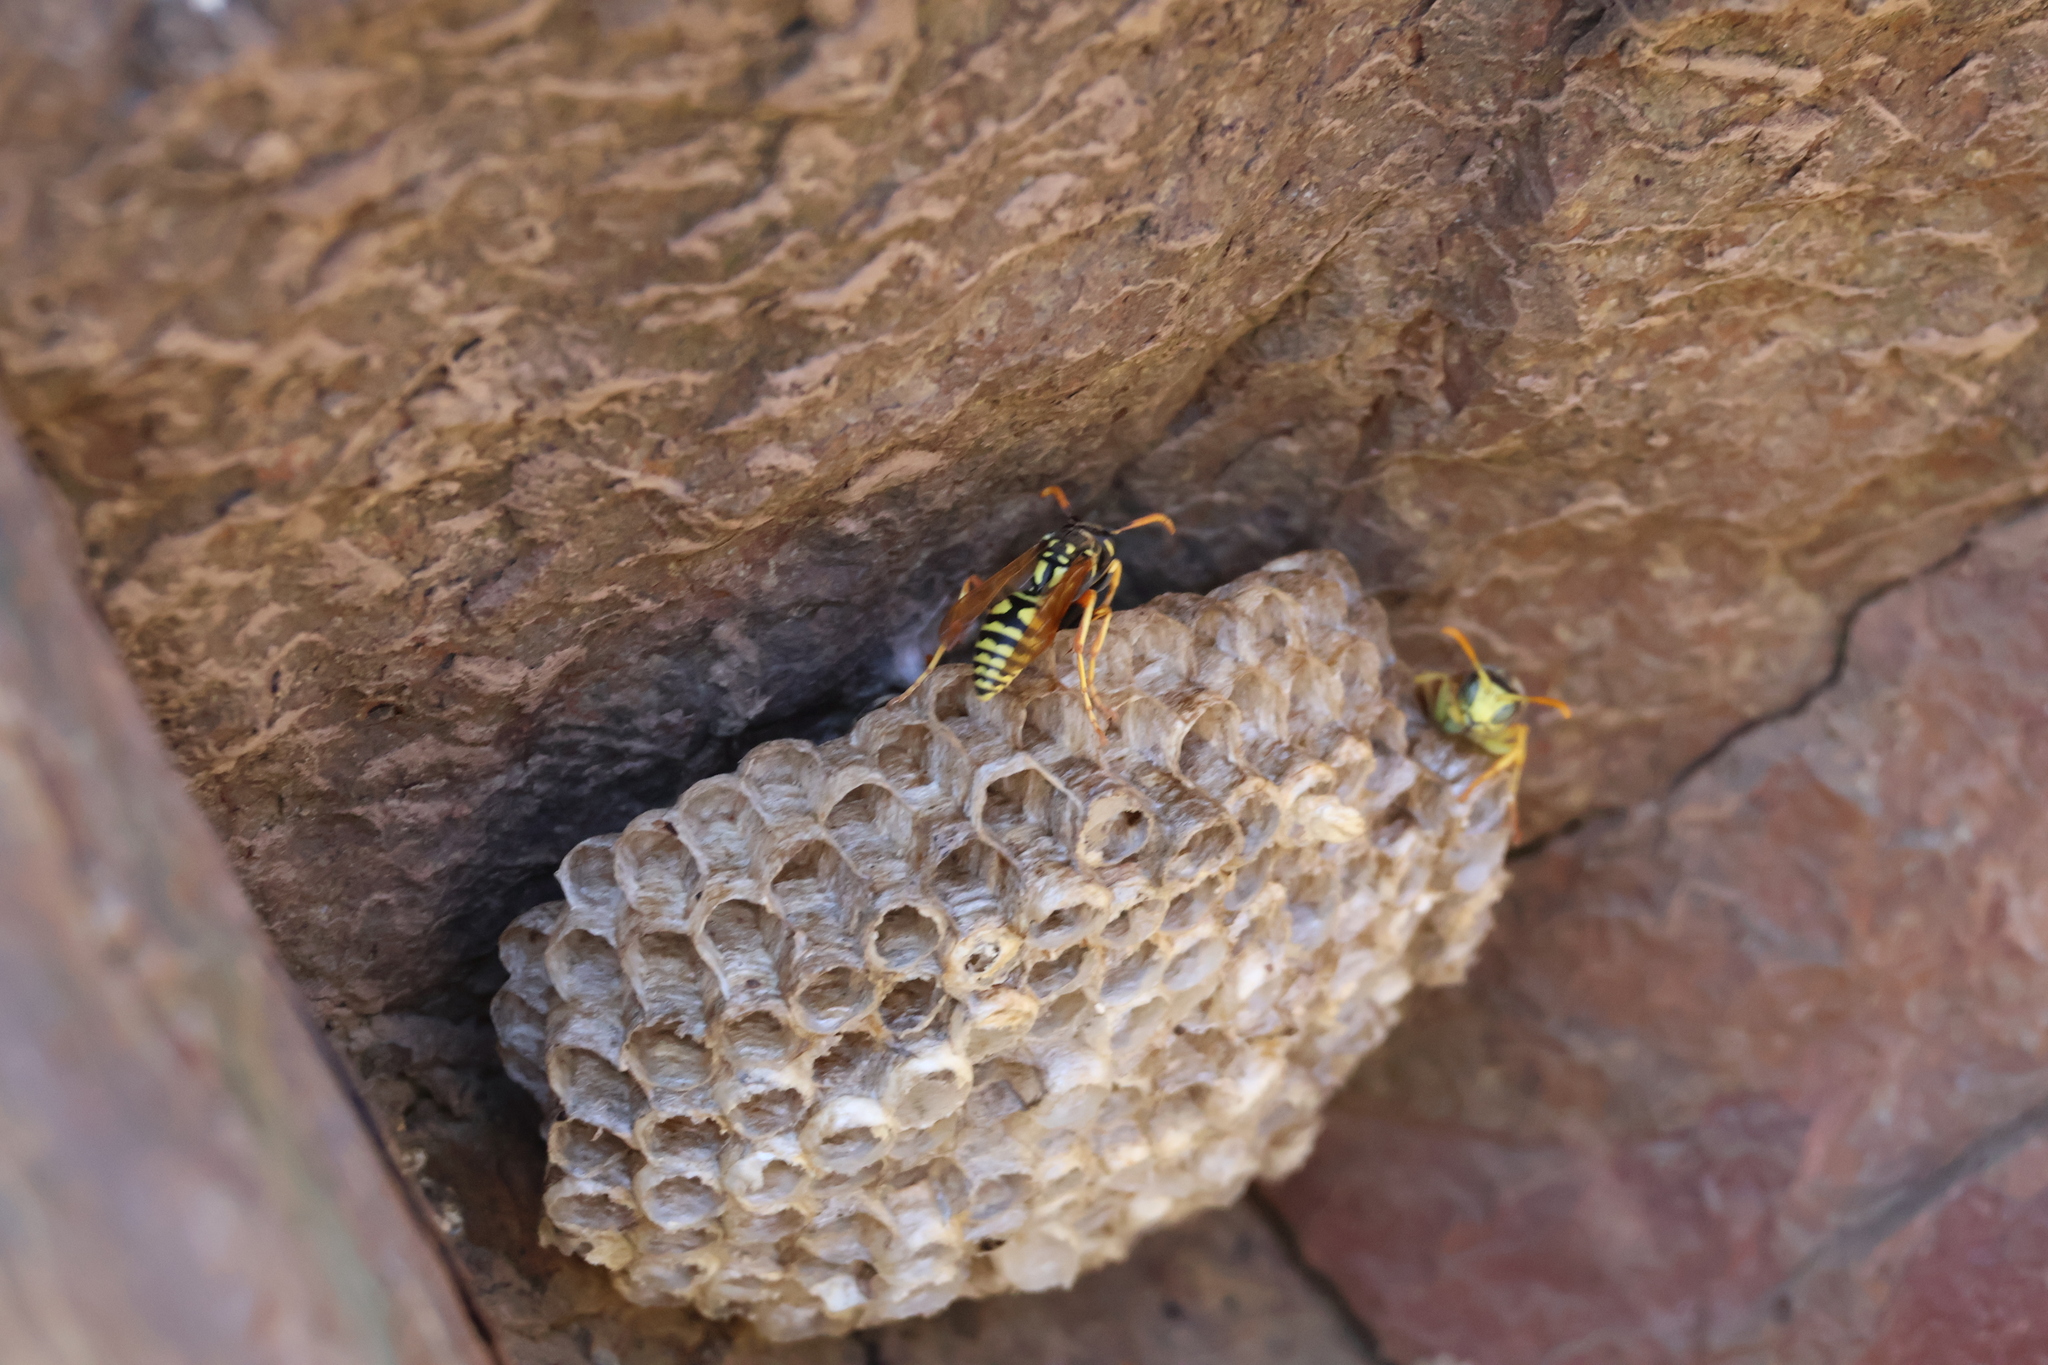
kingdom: Animalia
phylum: Arthropoda
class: Insecta
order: Hymenoptera
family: Eumenidae
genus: Polistes
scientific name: Polistes dominula
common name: Paper wasp
